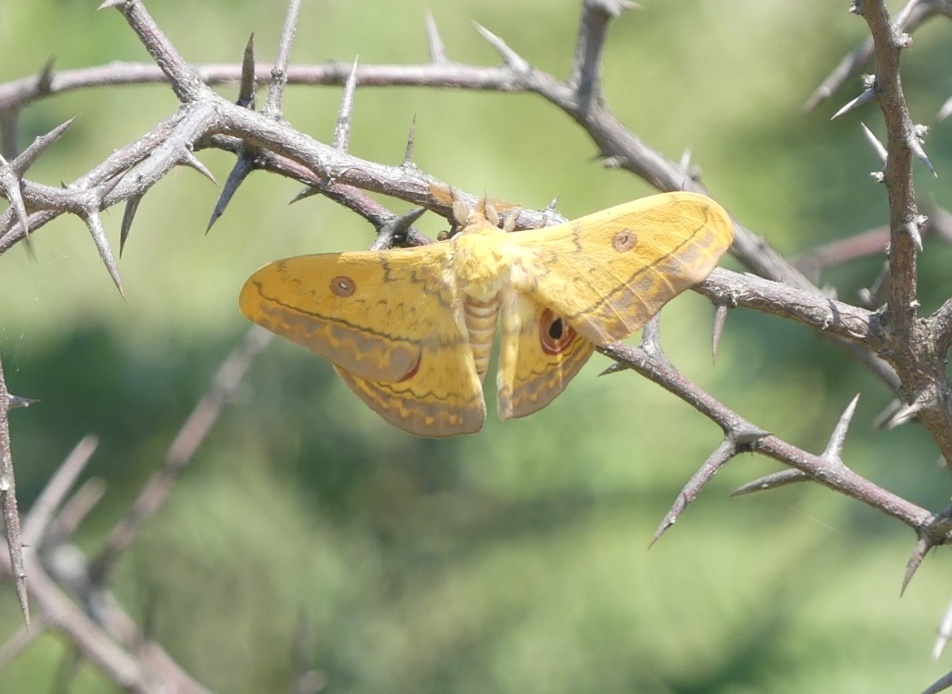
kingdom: Animalia
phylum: Arthropoda
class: Insecta
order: Lepidoptera
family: Saturniidae
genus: Aurivillius
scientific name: Aurivillius fusca
